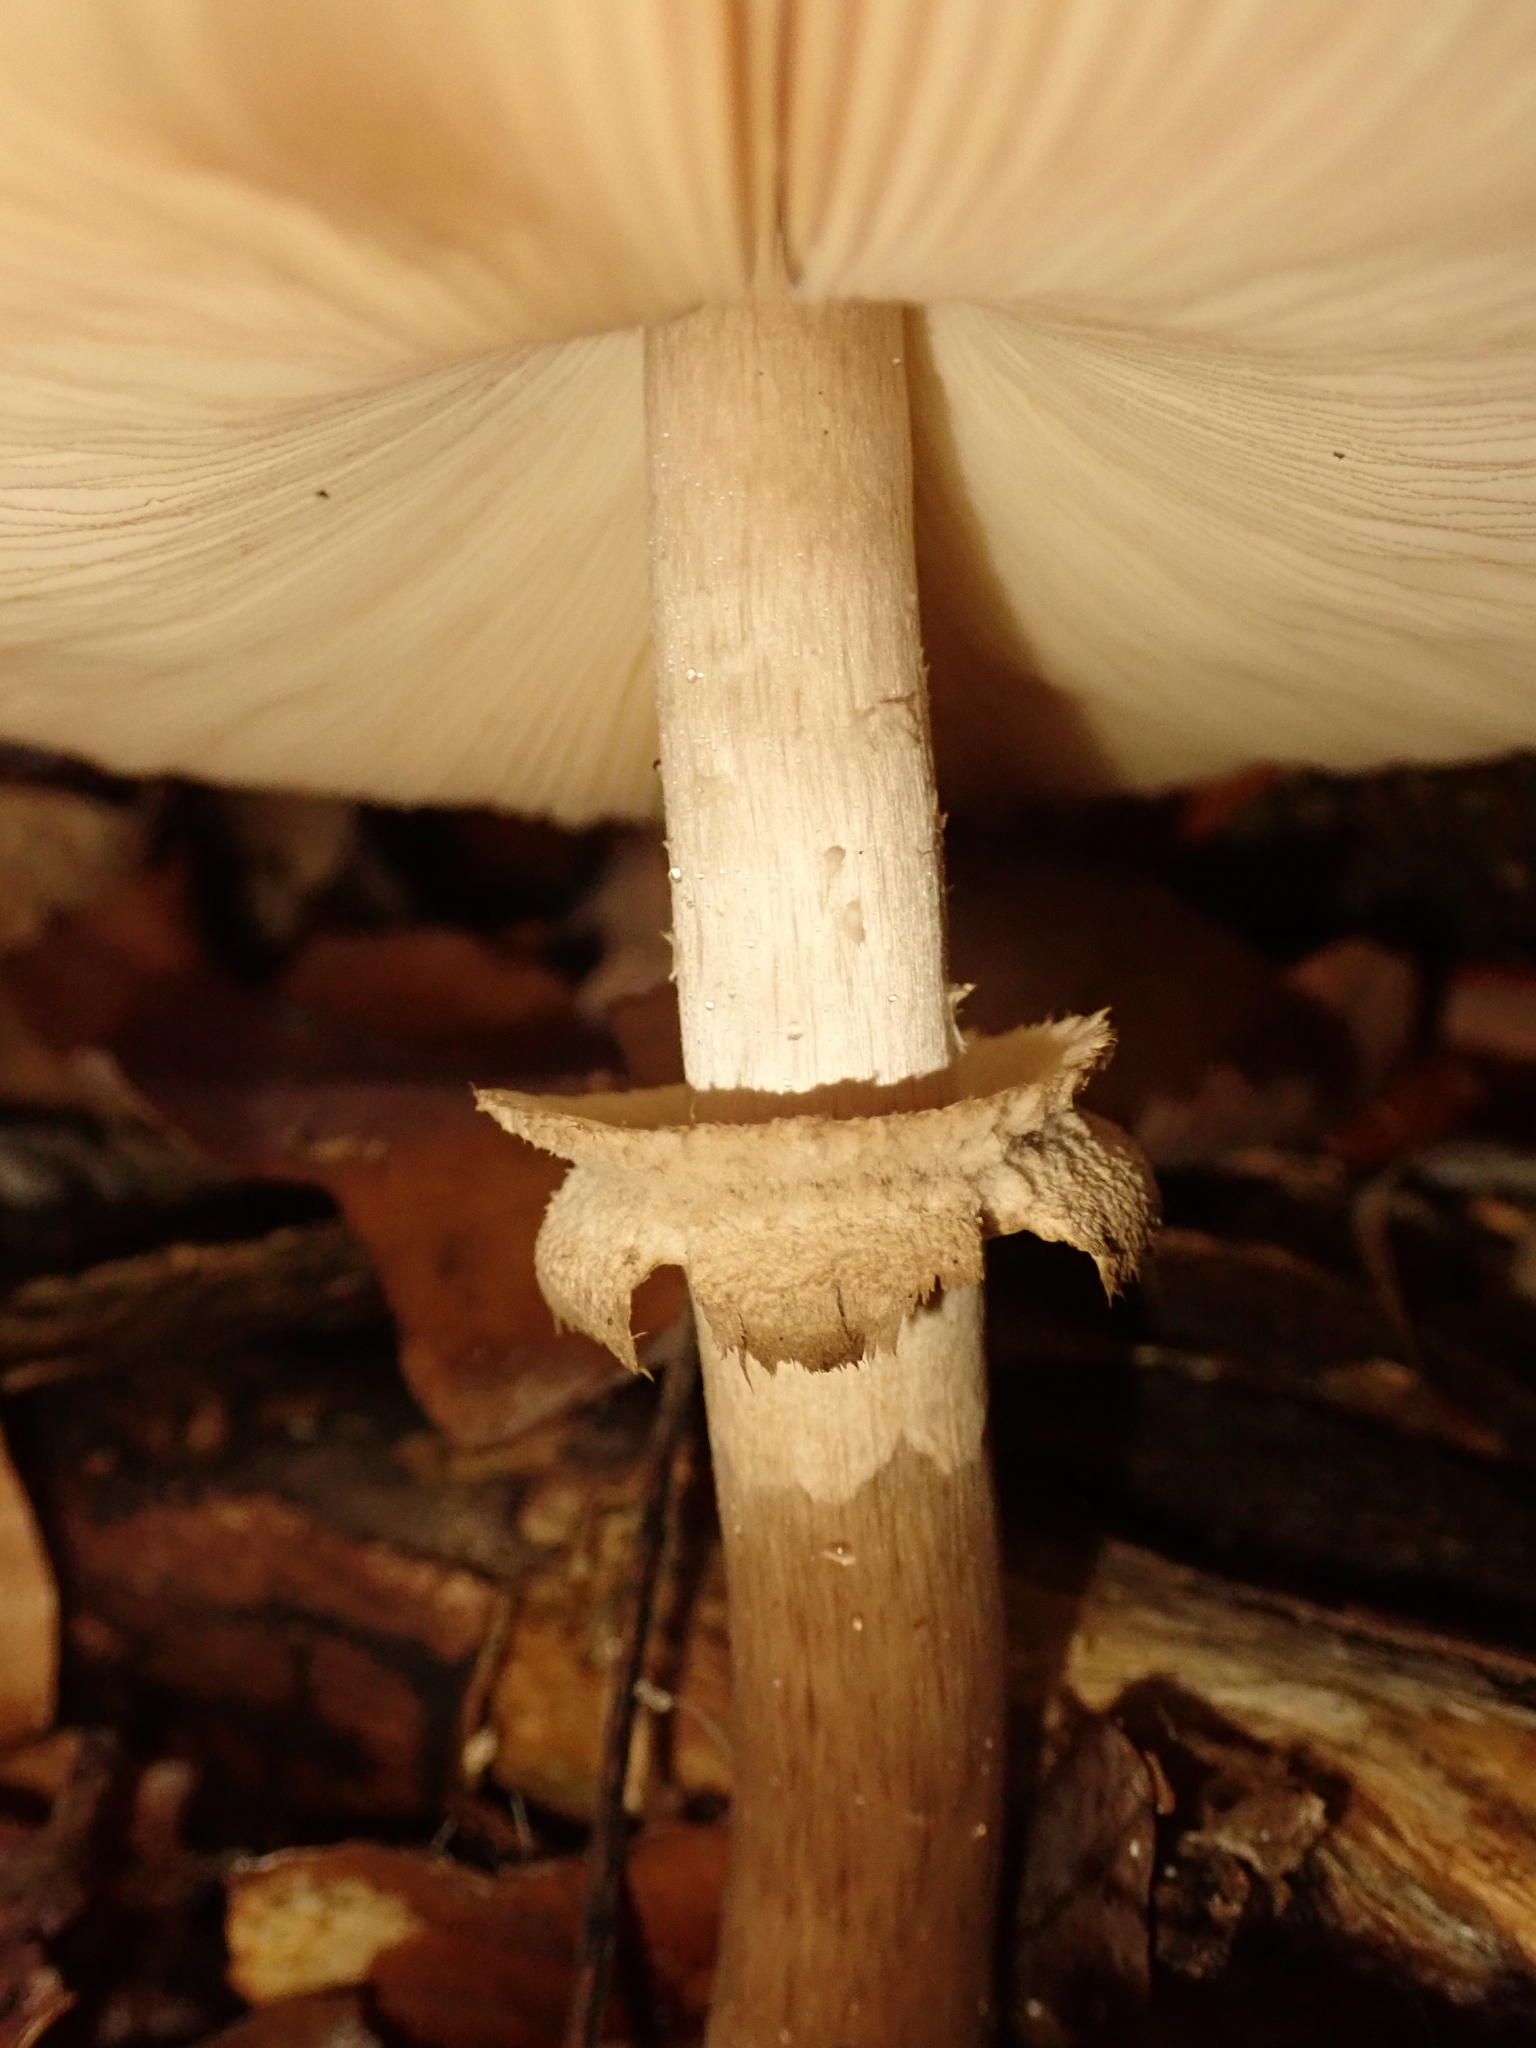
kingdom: Fungi
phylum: Basidiomycota
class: Agaricomycetes
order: Agaricales
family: Agaricaceae
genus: Chlorophyllum
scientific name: Chlorophyllum rhacodes
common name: Shaggy parasol
